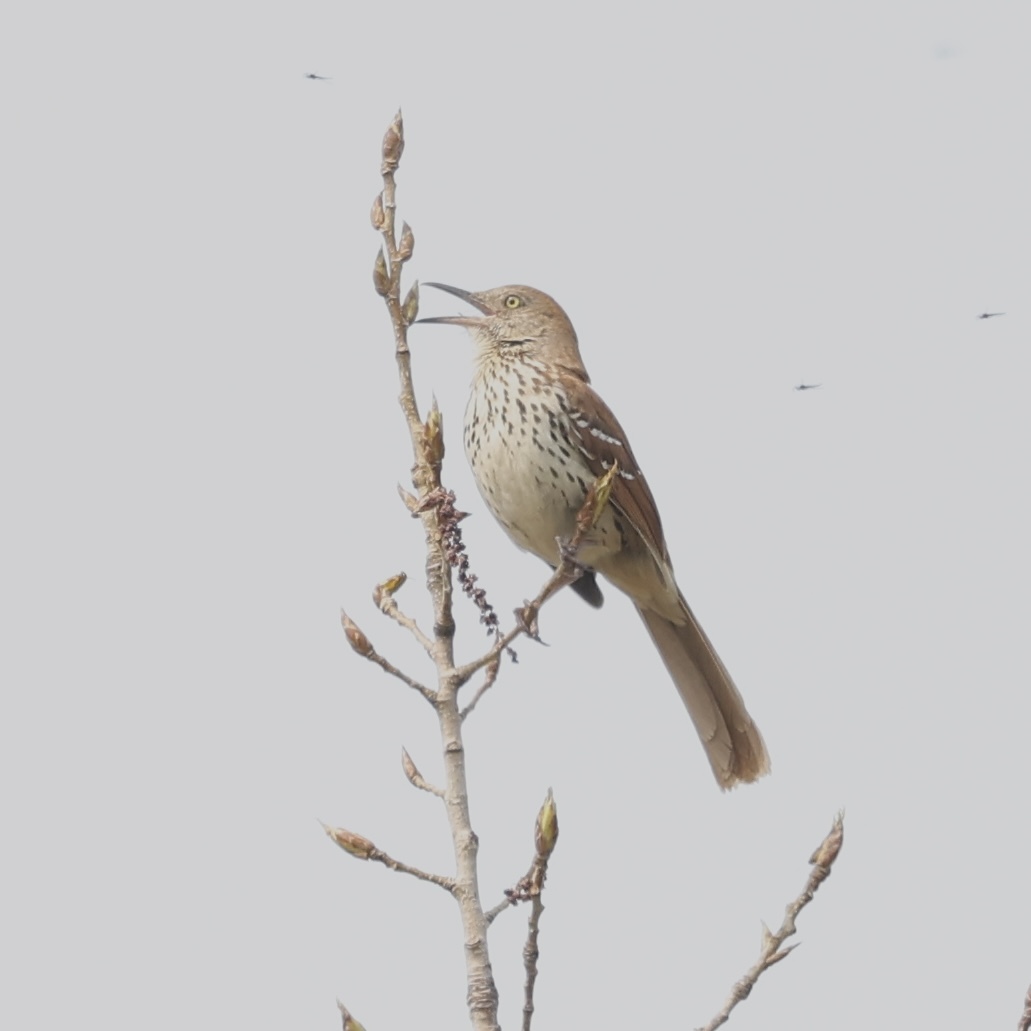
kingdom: Animalia
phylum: Chordata
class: Aves
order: Passeriformes
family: Mimidae
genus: Toxostoma
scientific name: Toxostoma rufum
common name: Brown thrasher
